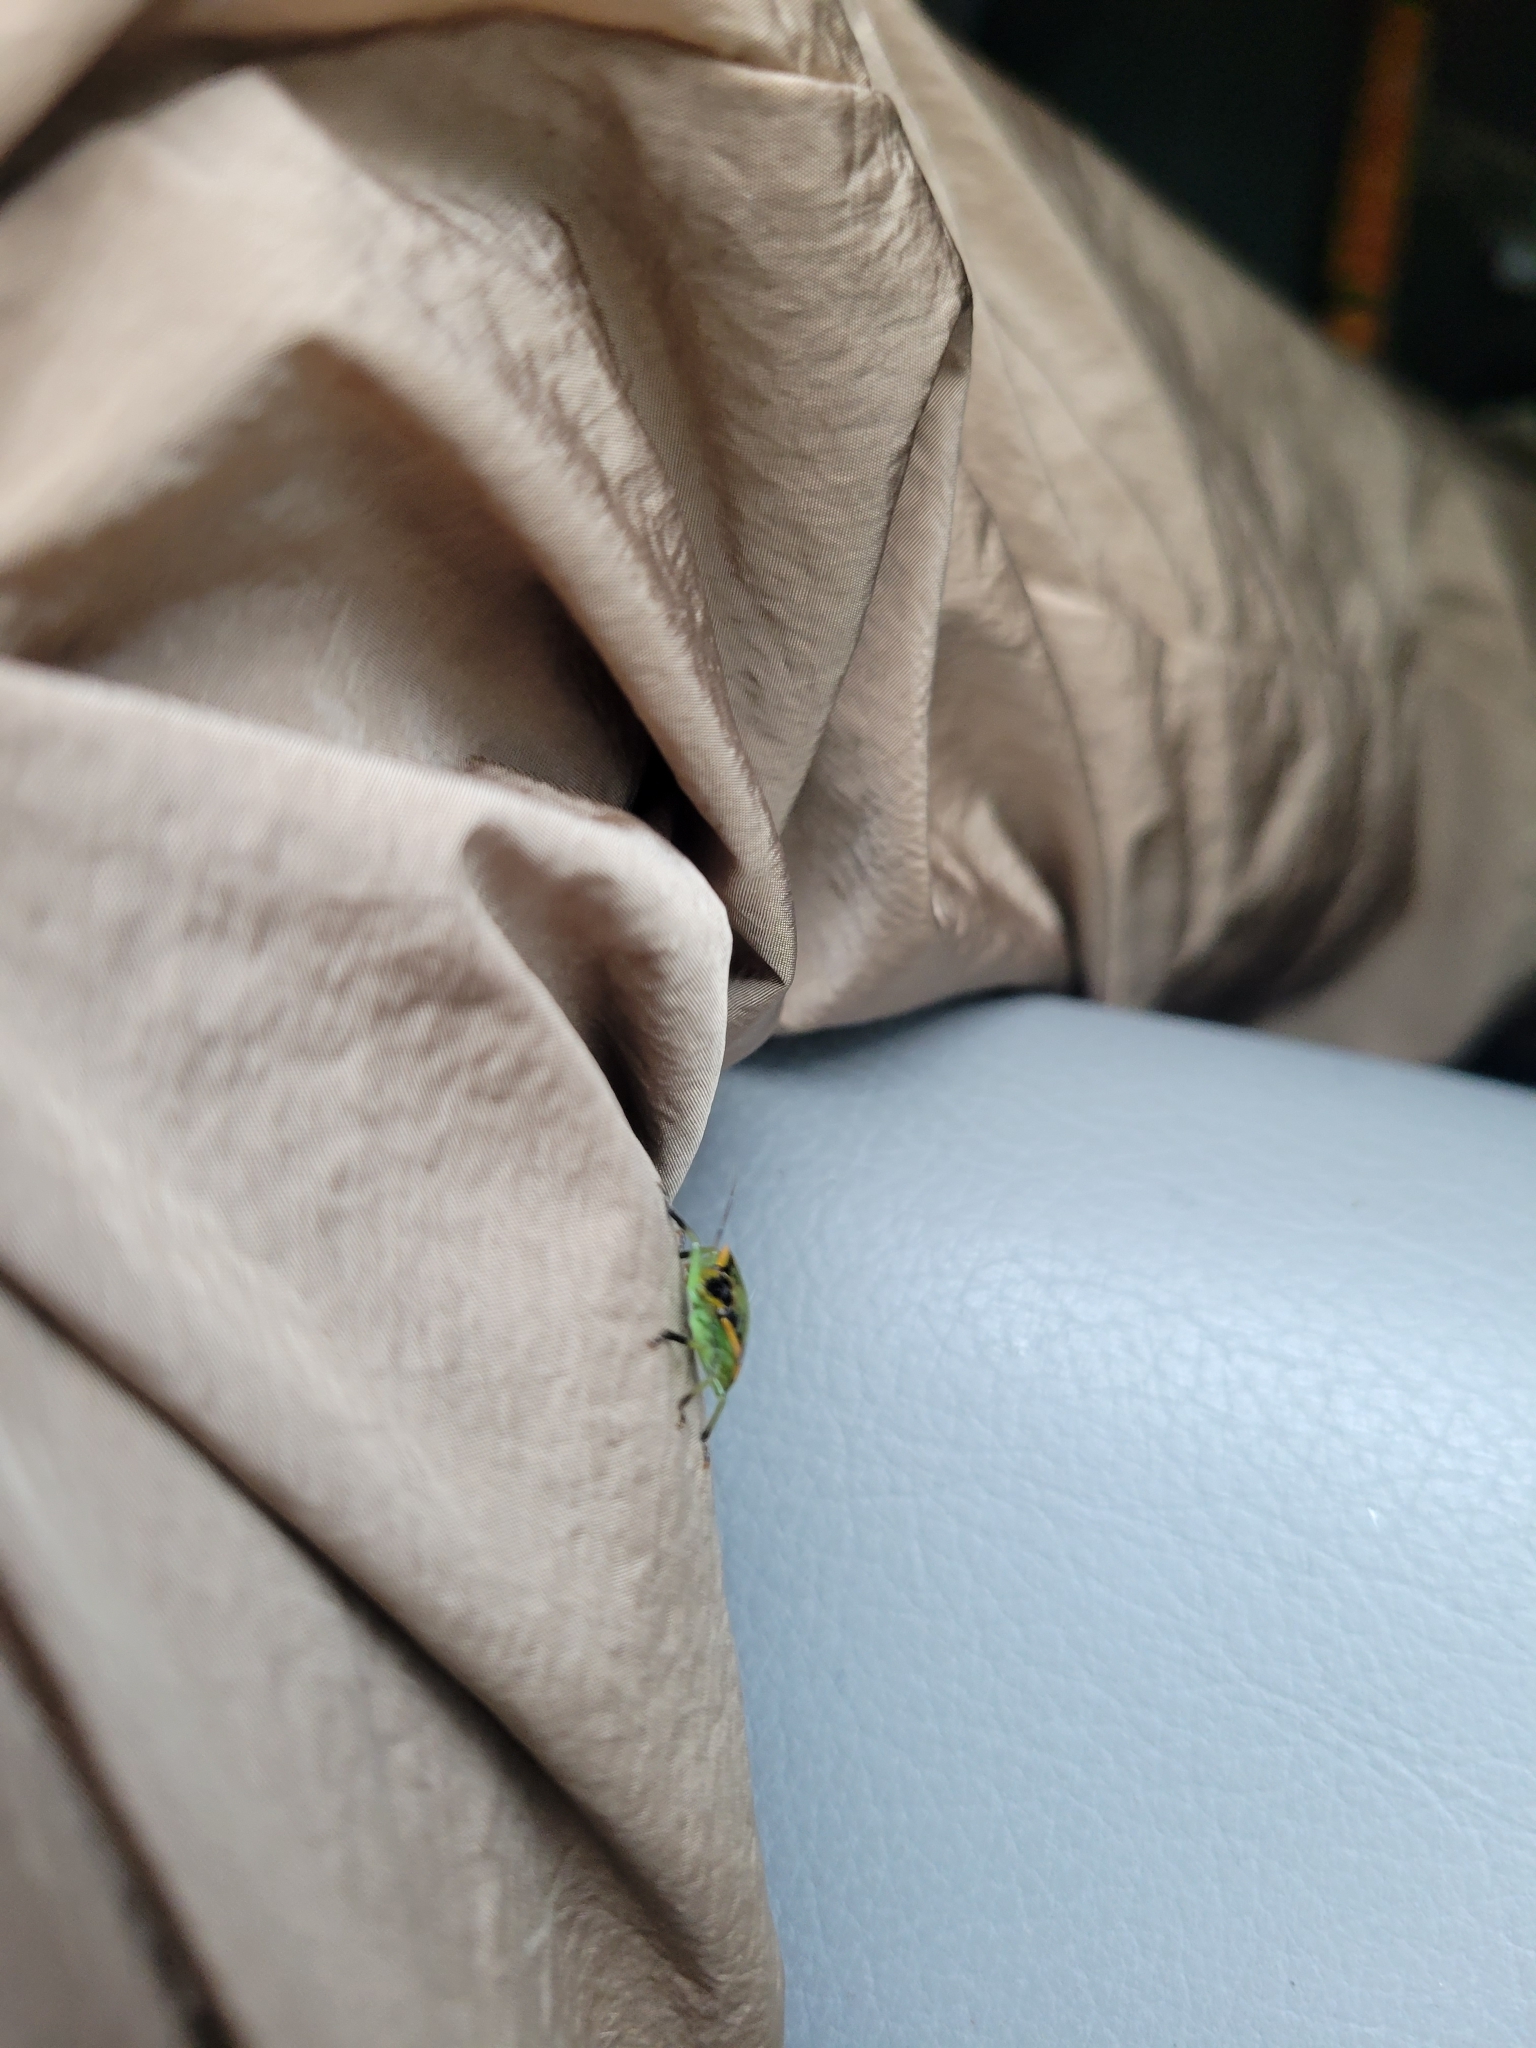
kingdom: Animalia
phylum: Arthropoda
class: Insecta
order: Hemiptera
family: Pentatomidae
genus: Chinavia
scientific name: Chinavia hilaris
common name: Green stink bug
